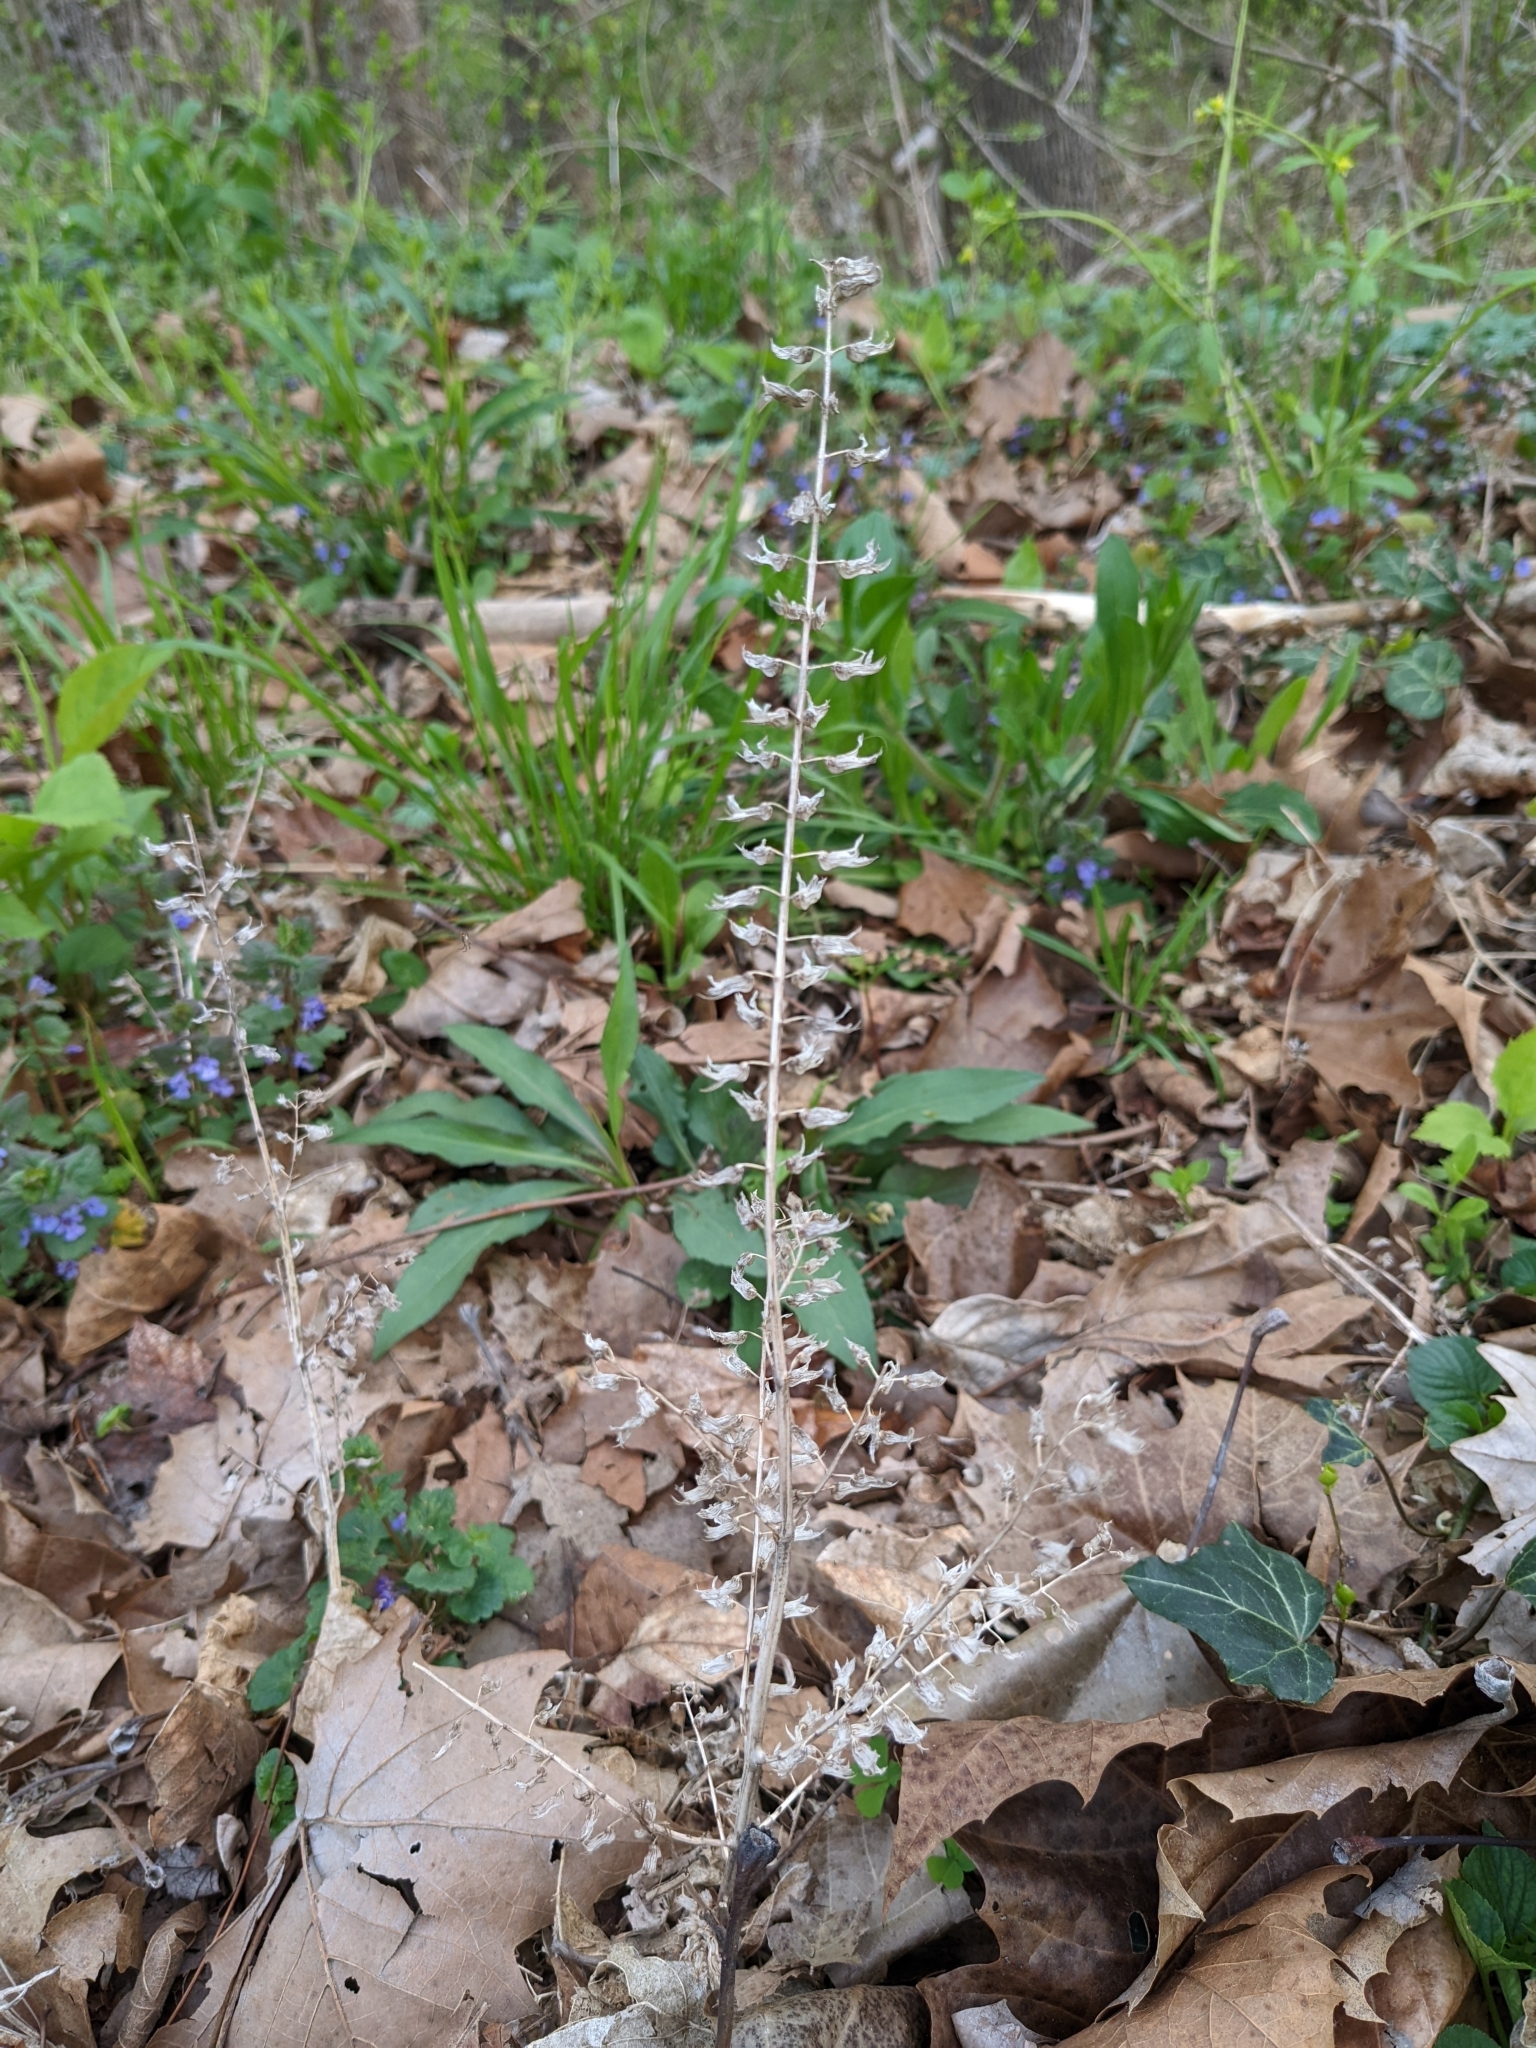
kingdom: Plantae
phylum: Tracheophyta
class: Magnoliopsida
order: Lamiales
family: Lamiaceae
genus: Perilla
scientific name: Perilla frutescens
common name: Perilla
